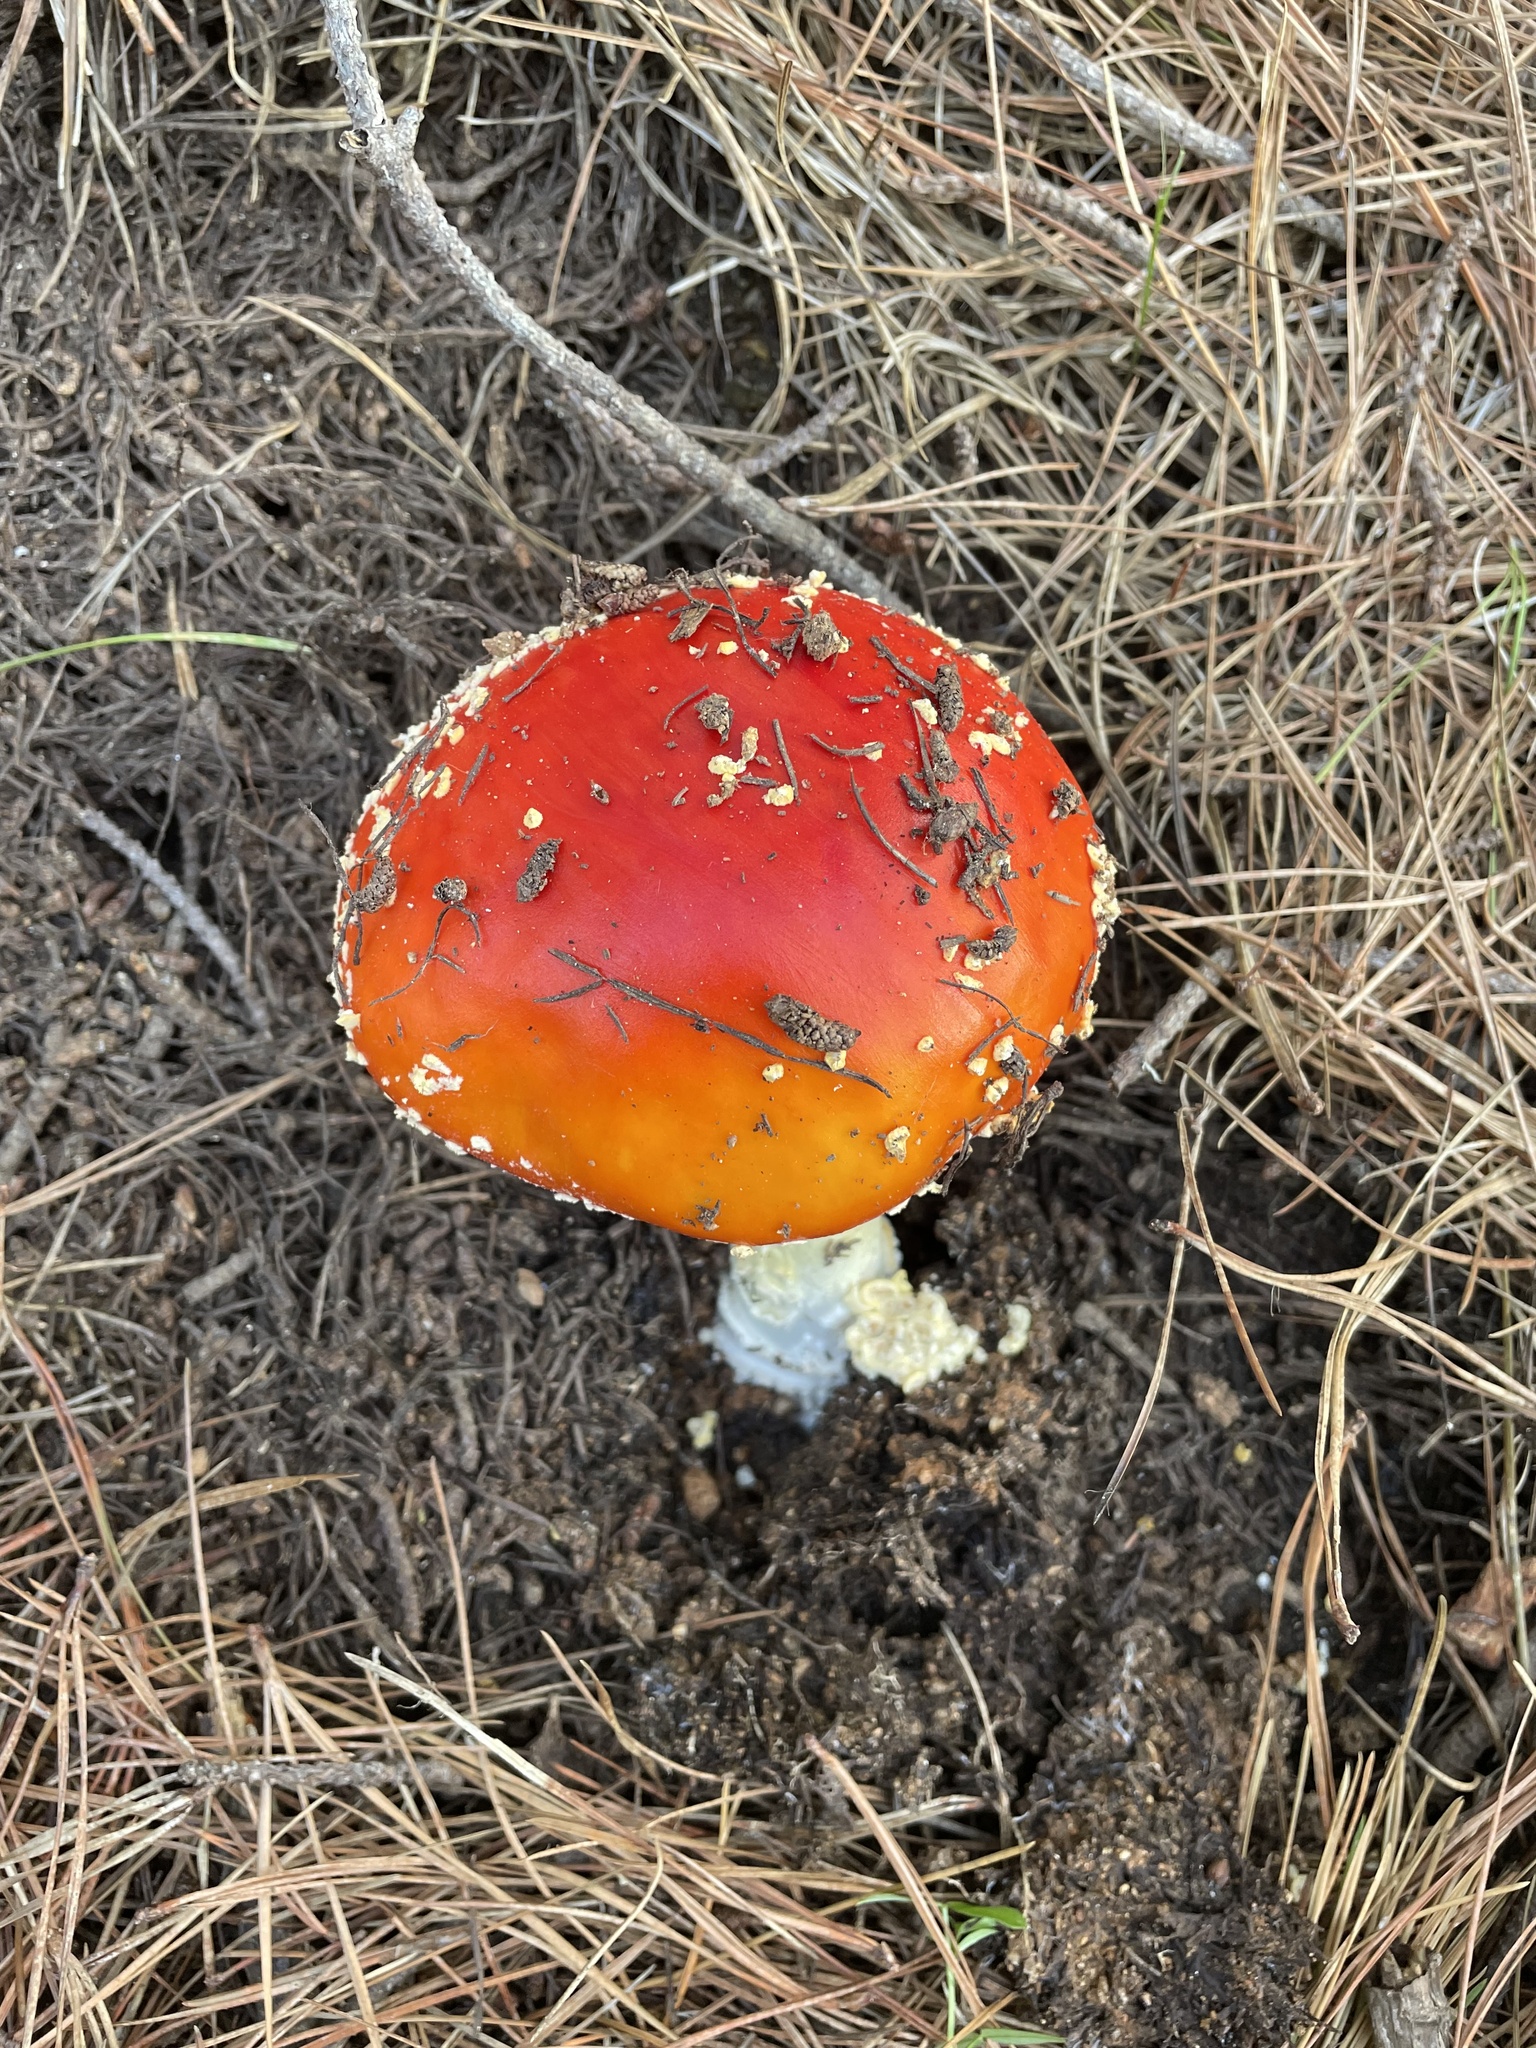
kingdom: Fungi
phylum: Basidiomycota
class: Agaricomycetes
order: Agaricales
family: Amanitaceae
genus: Amanita
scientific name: Amanita muscaria
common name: Fly agaric
